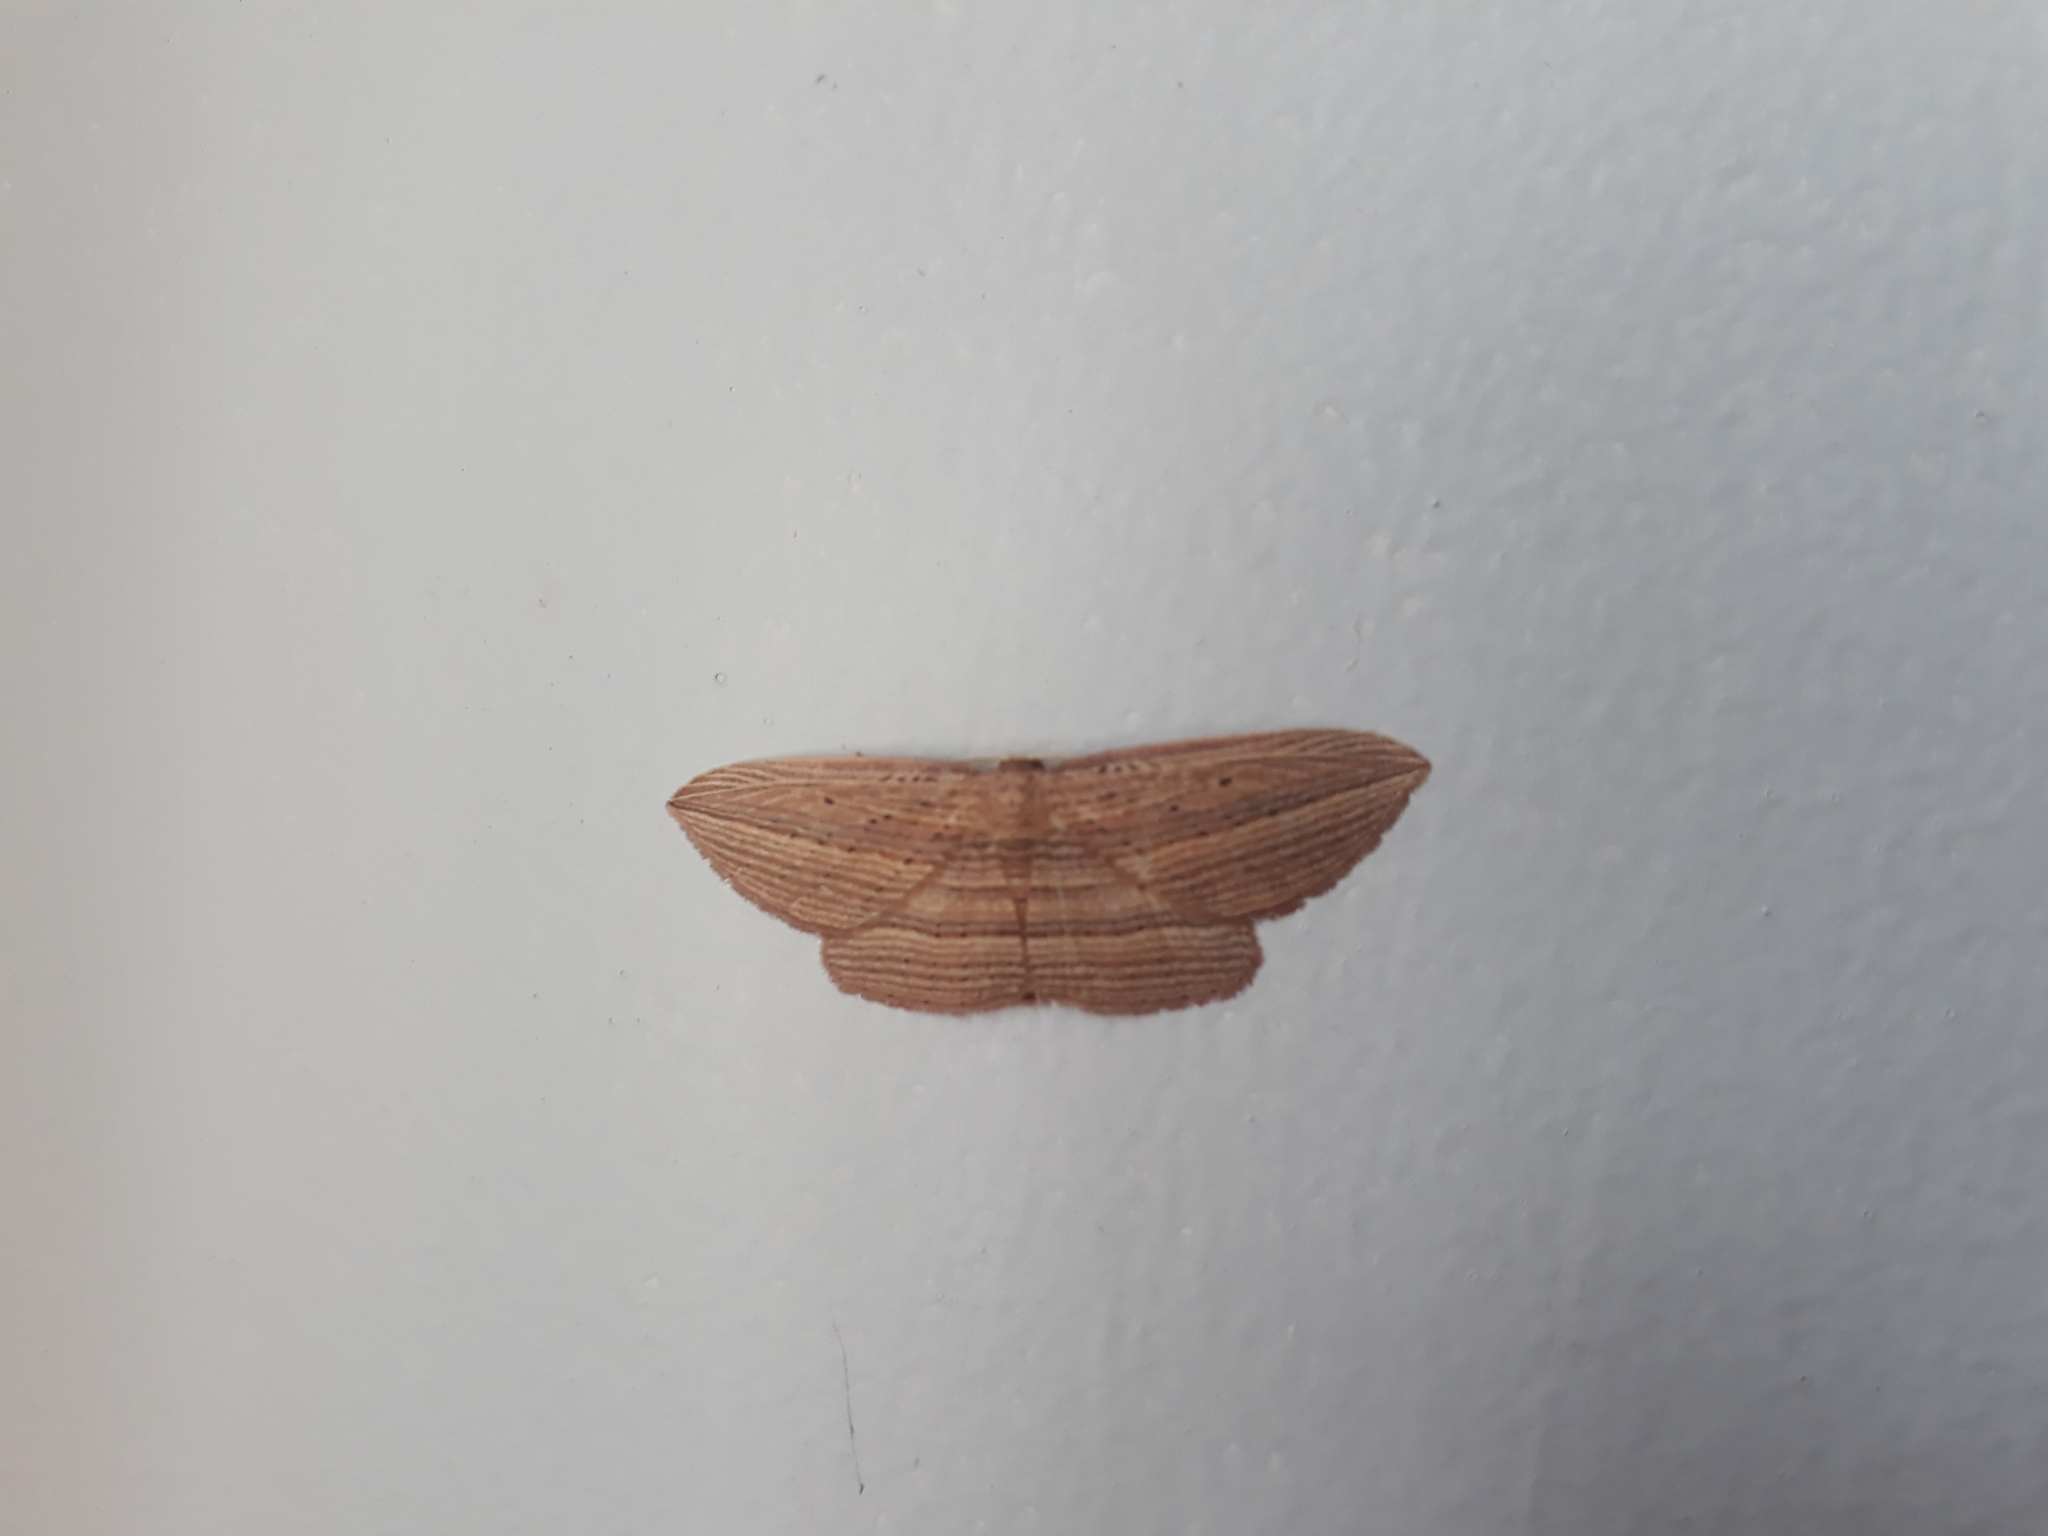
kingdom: Animalia
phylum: Arthropoda
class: Insecta
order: Lepidoptera
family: Geometridae
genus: Epiphryne
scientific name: Epiphryne verriculata
